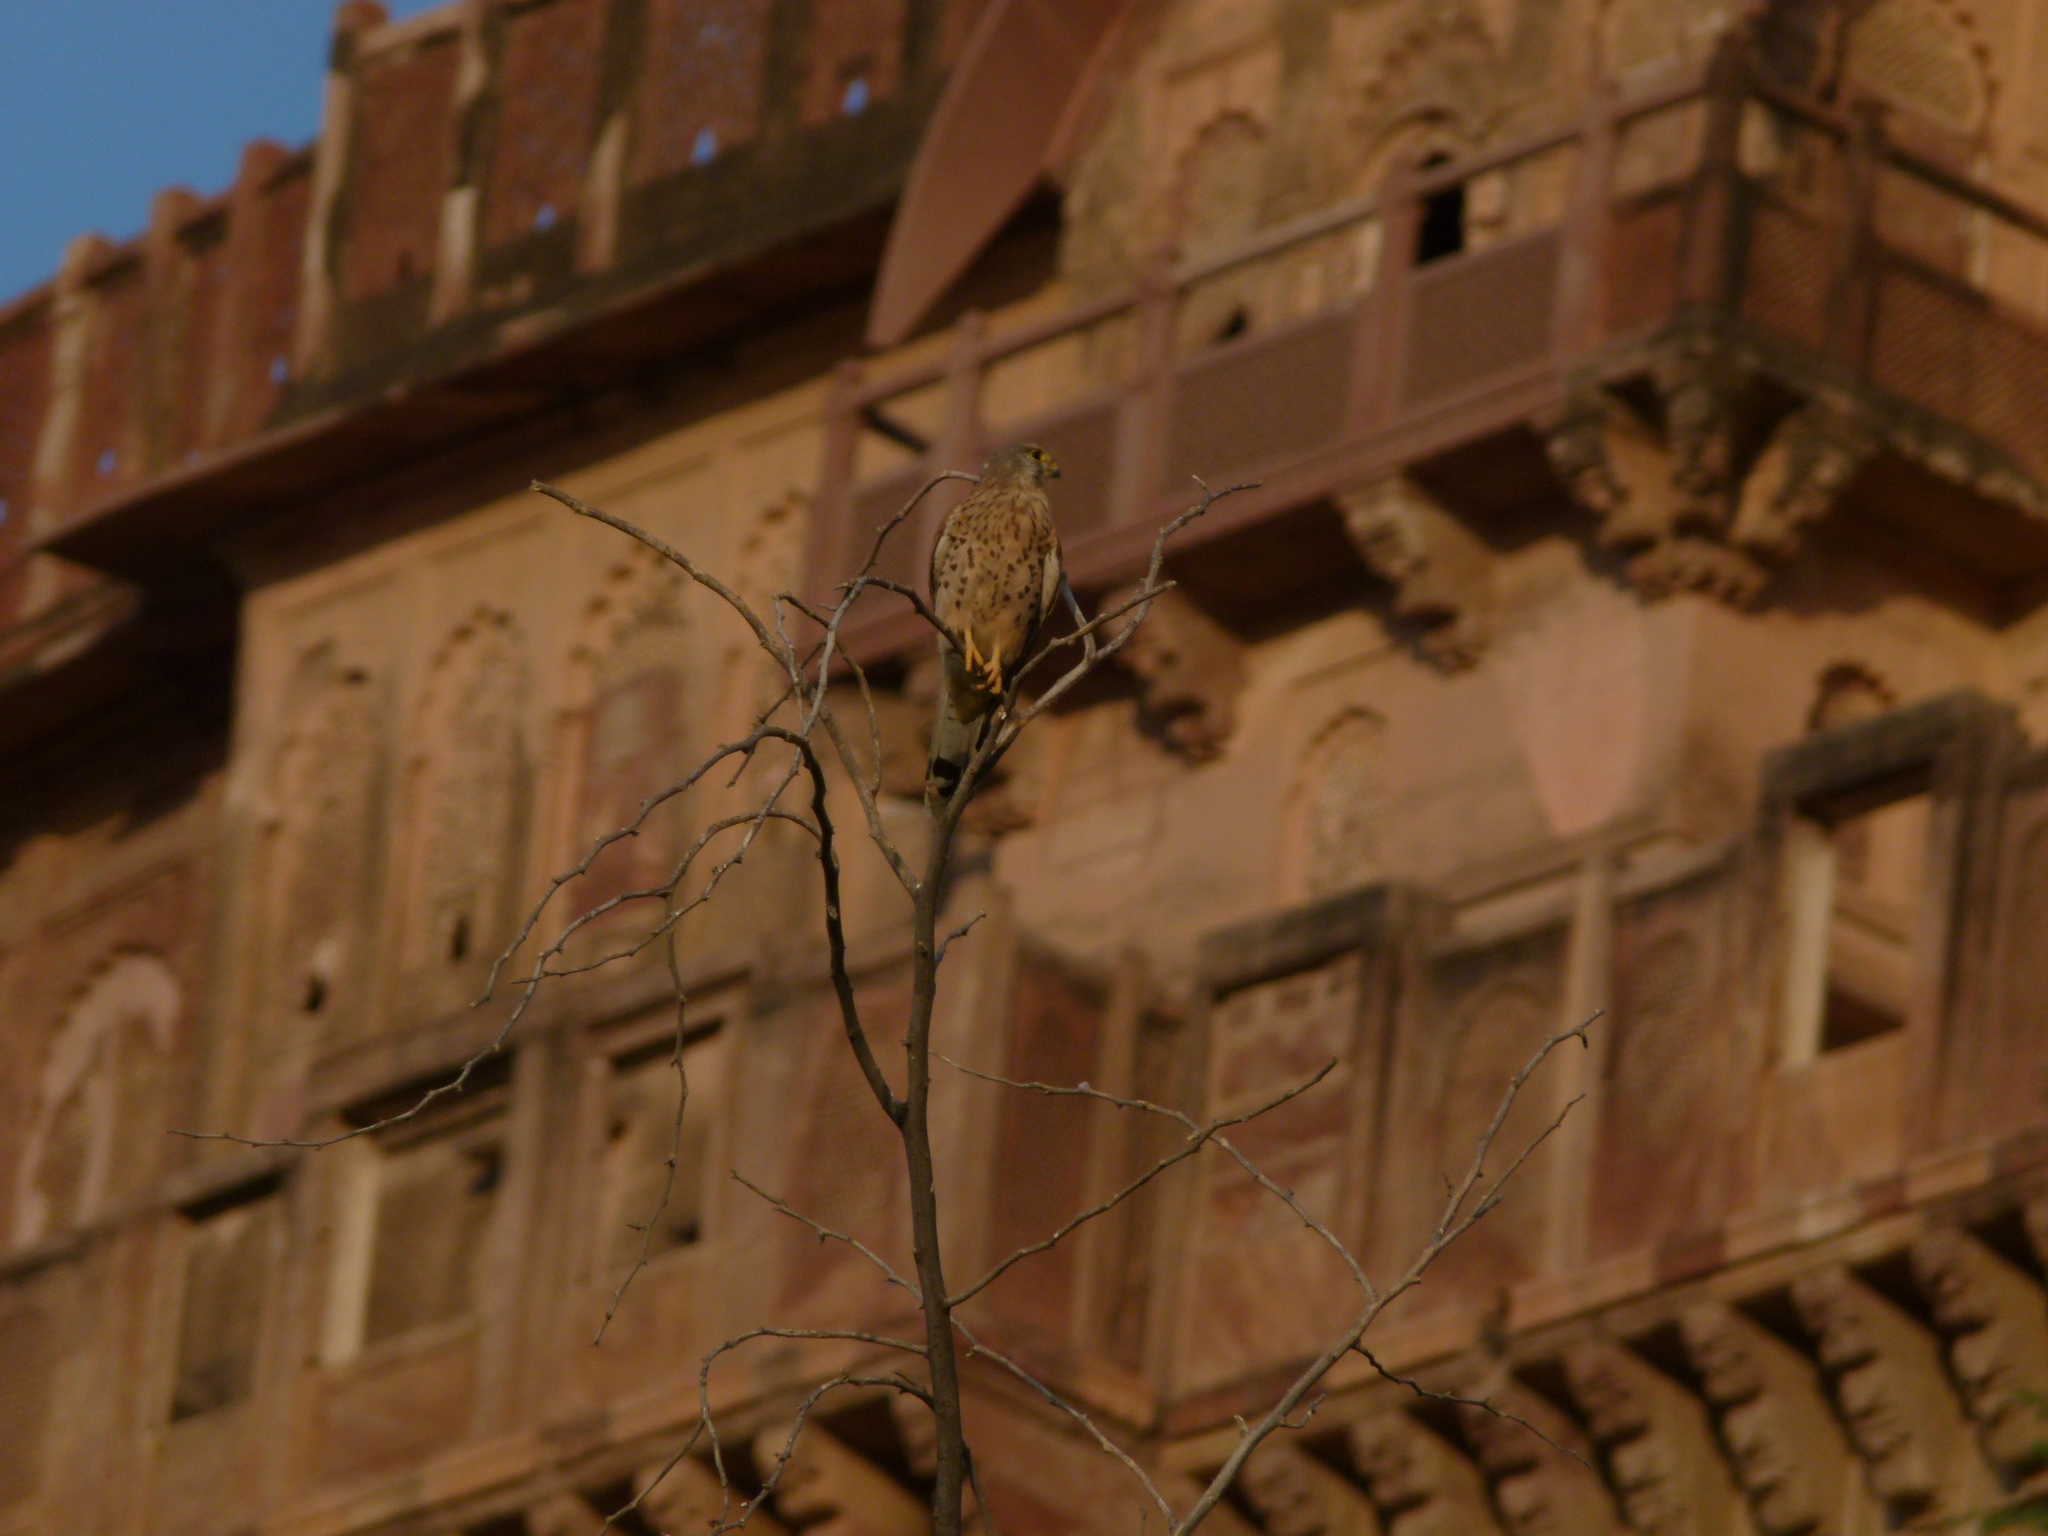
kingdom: Animalia
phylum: Chordata
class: Aves
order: Falconiformes
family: Falconidae
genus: Falco
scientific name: Falco tinnunculus
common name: Common kestrel
